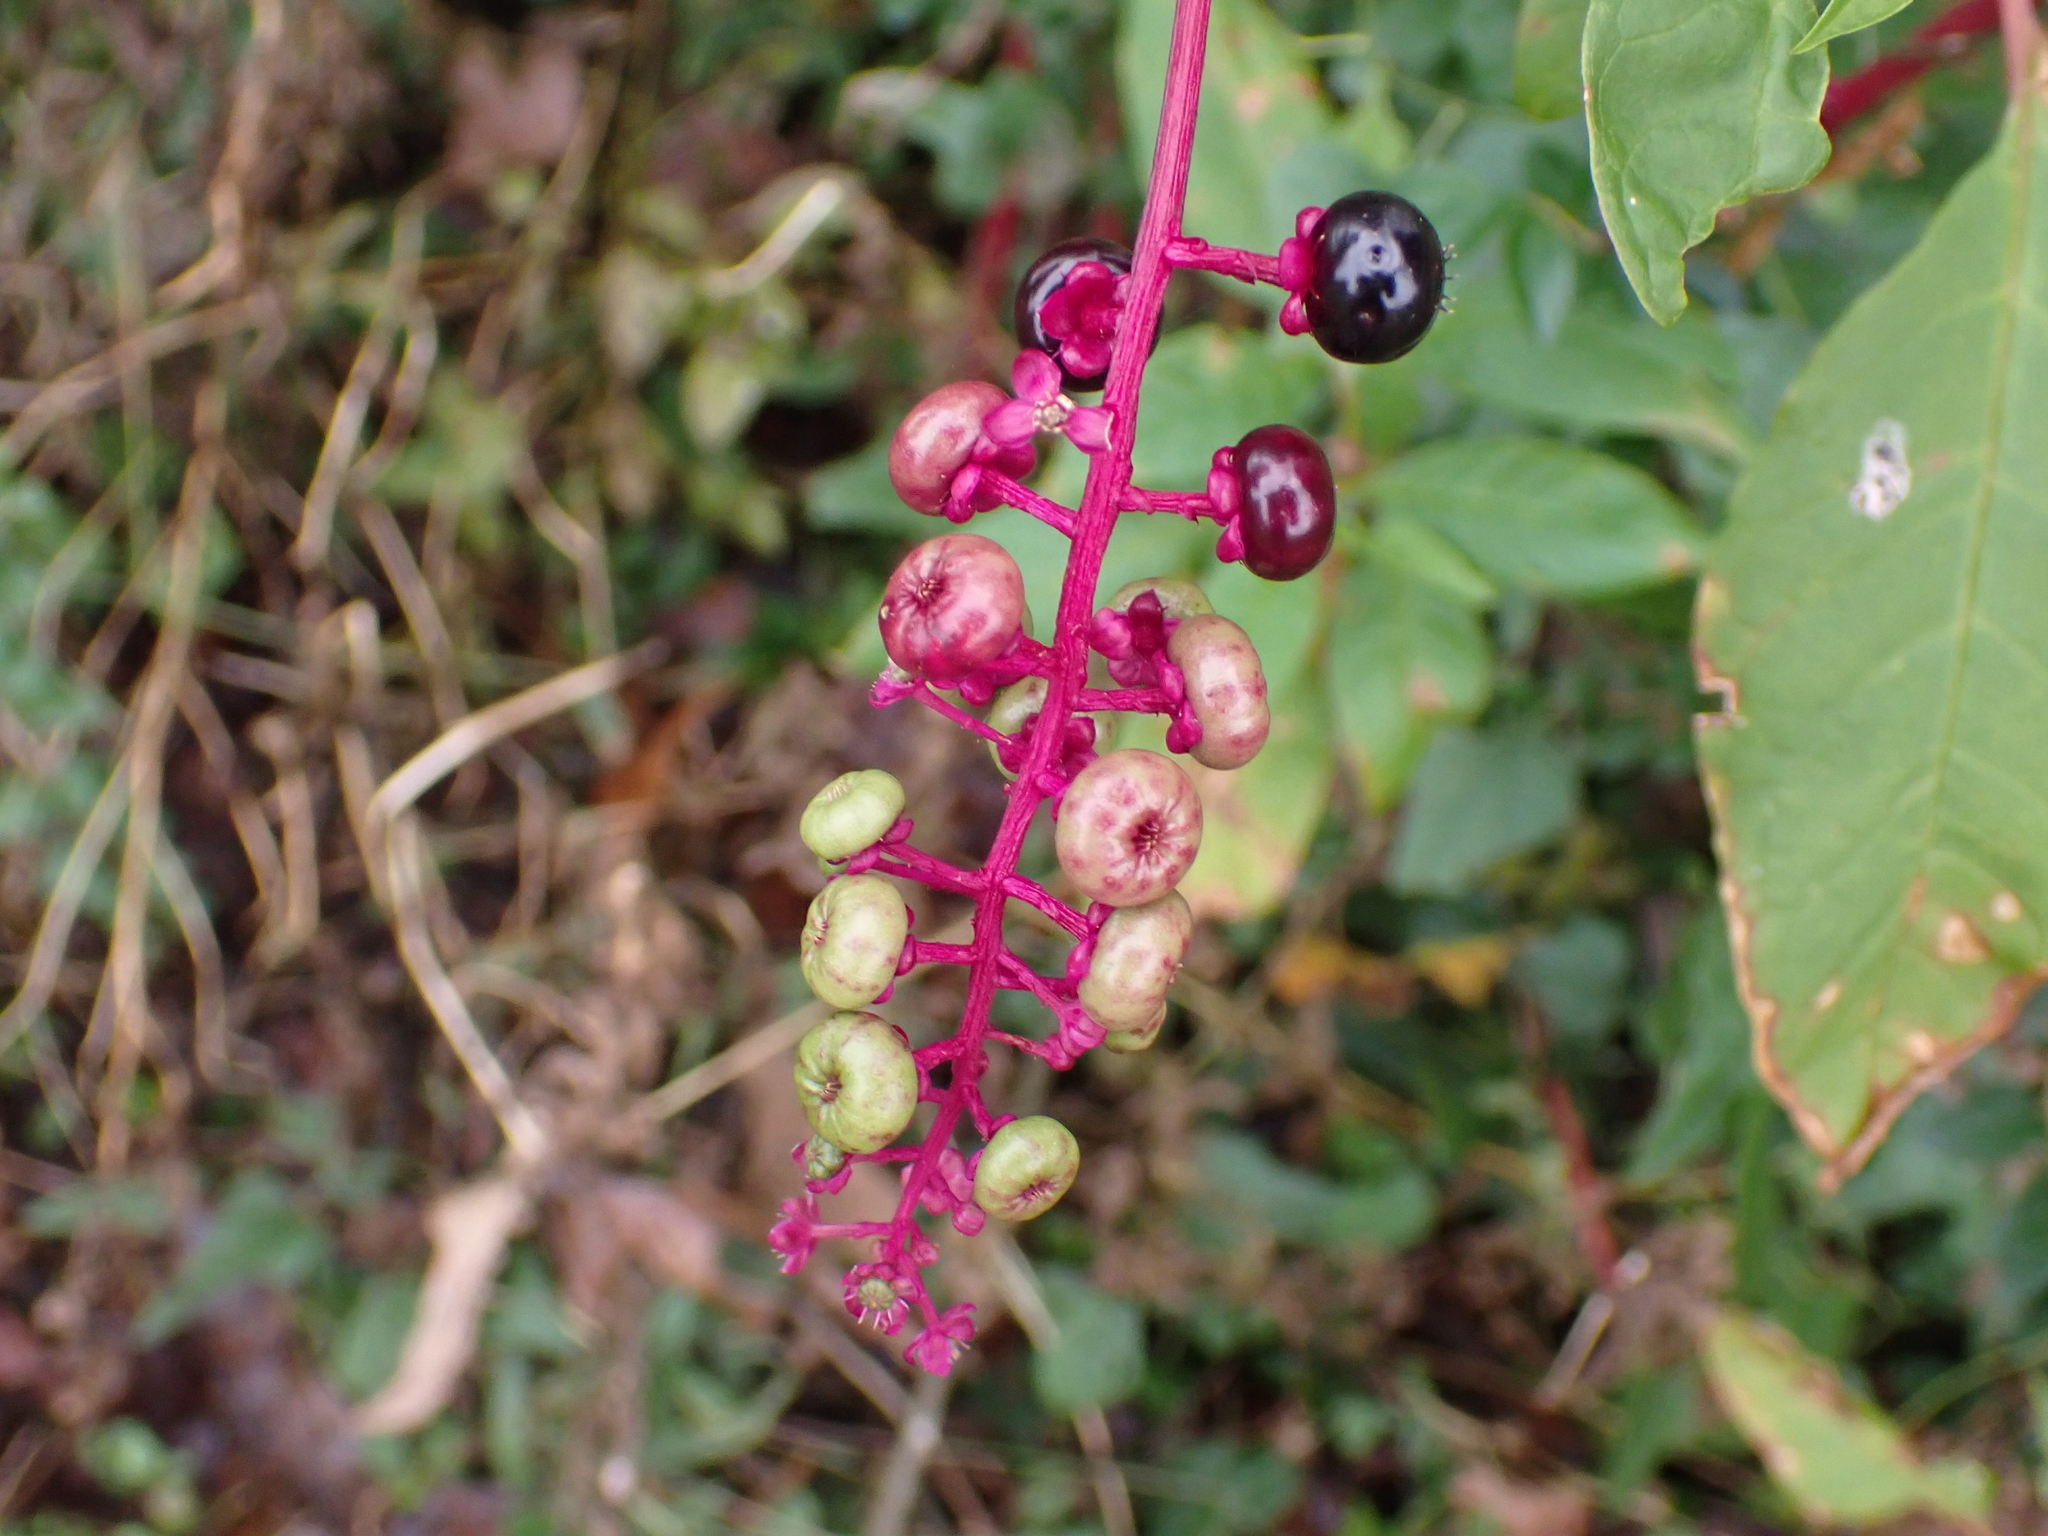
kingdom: Plantae
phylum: Tracheophyta
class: Magnoliopsida
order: Caryophyllales
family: Phytolaccaceae
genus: Phytolacca
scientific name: Phytolacca americana
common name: American pokeweed
